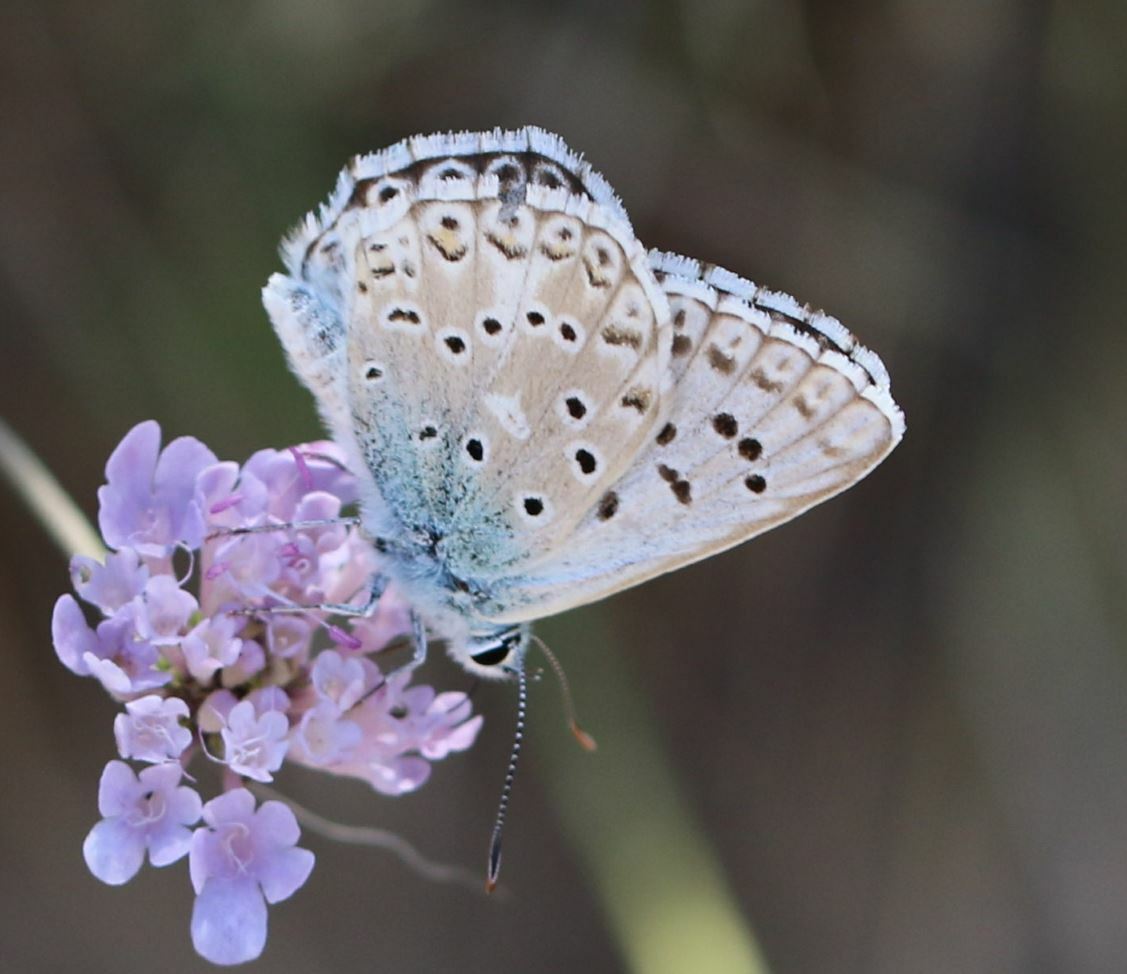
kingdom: Animalia
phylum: Arthropoda
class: Insecta
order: Lepidoptera
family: Lycaenidae
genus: Lysandra
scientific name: Lysandra hispana
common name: Provence chalkhill blue
